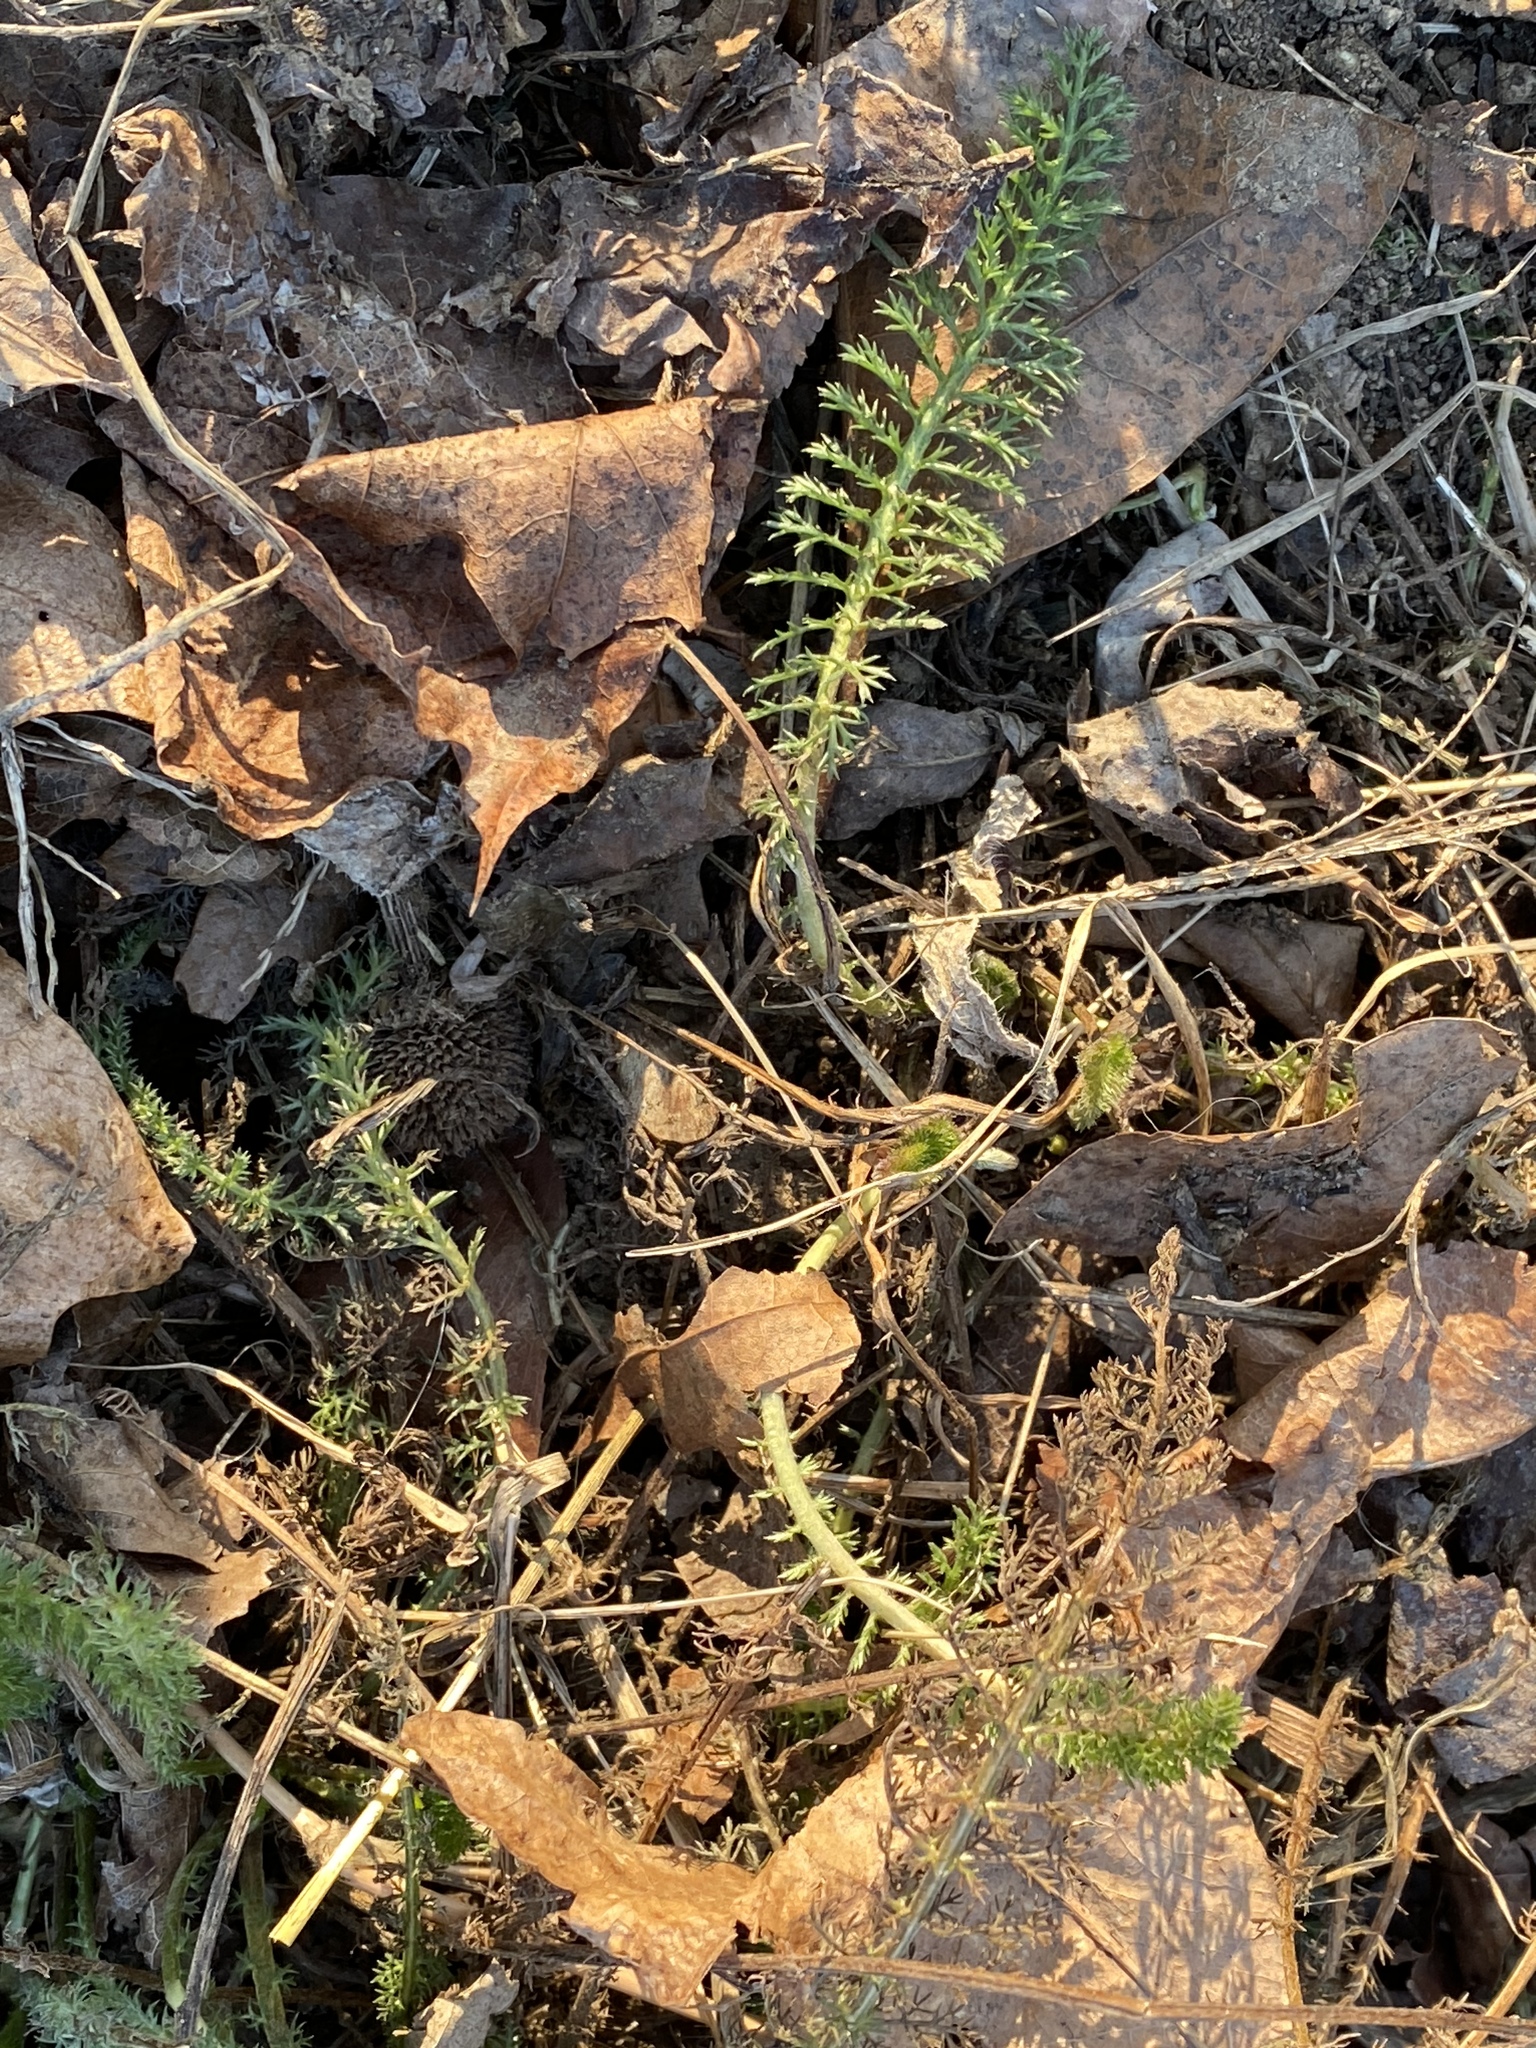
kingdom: Plantae
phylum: Tracheophyta
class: Magnoliopsida
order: Asterales
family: Asteraceae
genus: Achillea
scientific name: Achillea millefolium
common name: Yarrow
